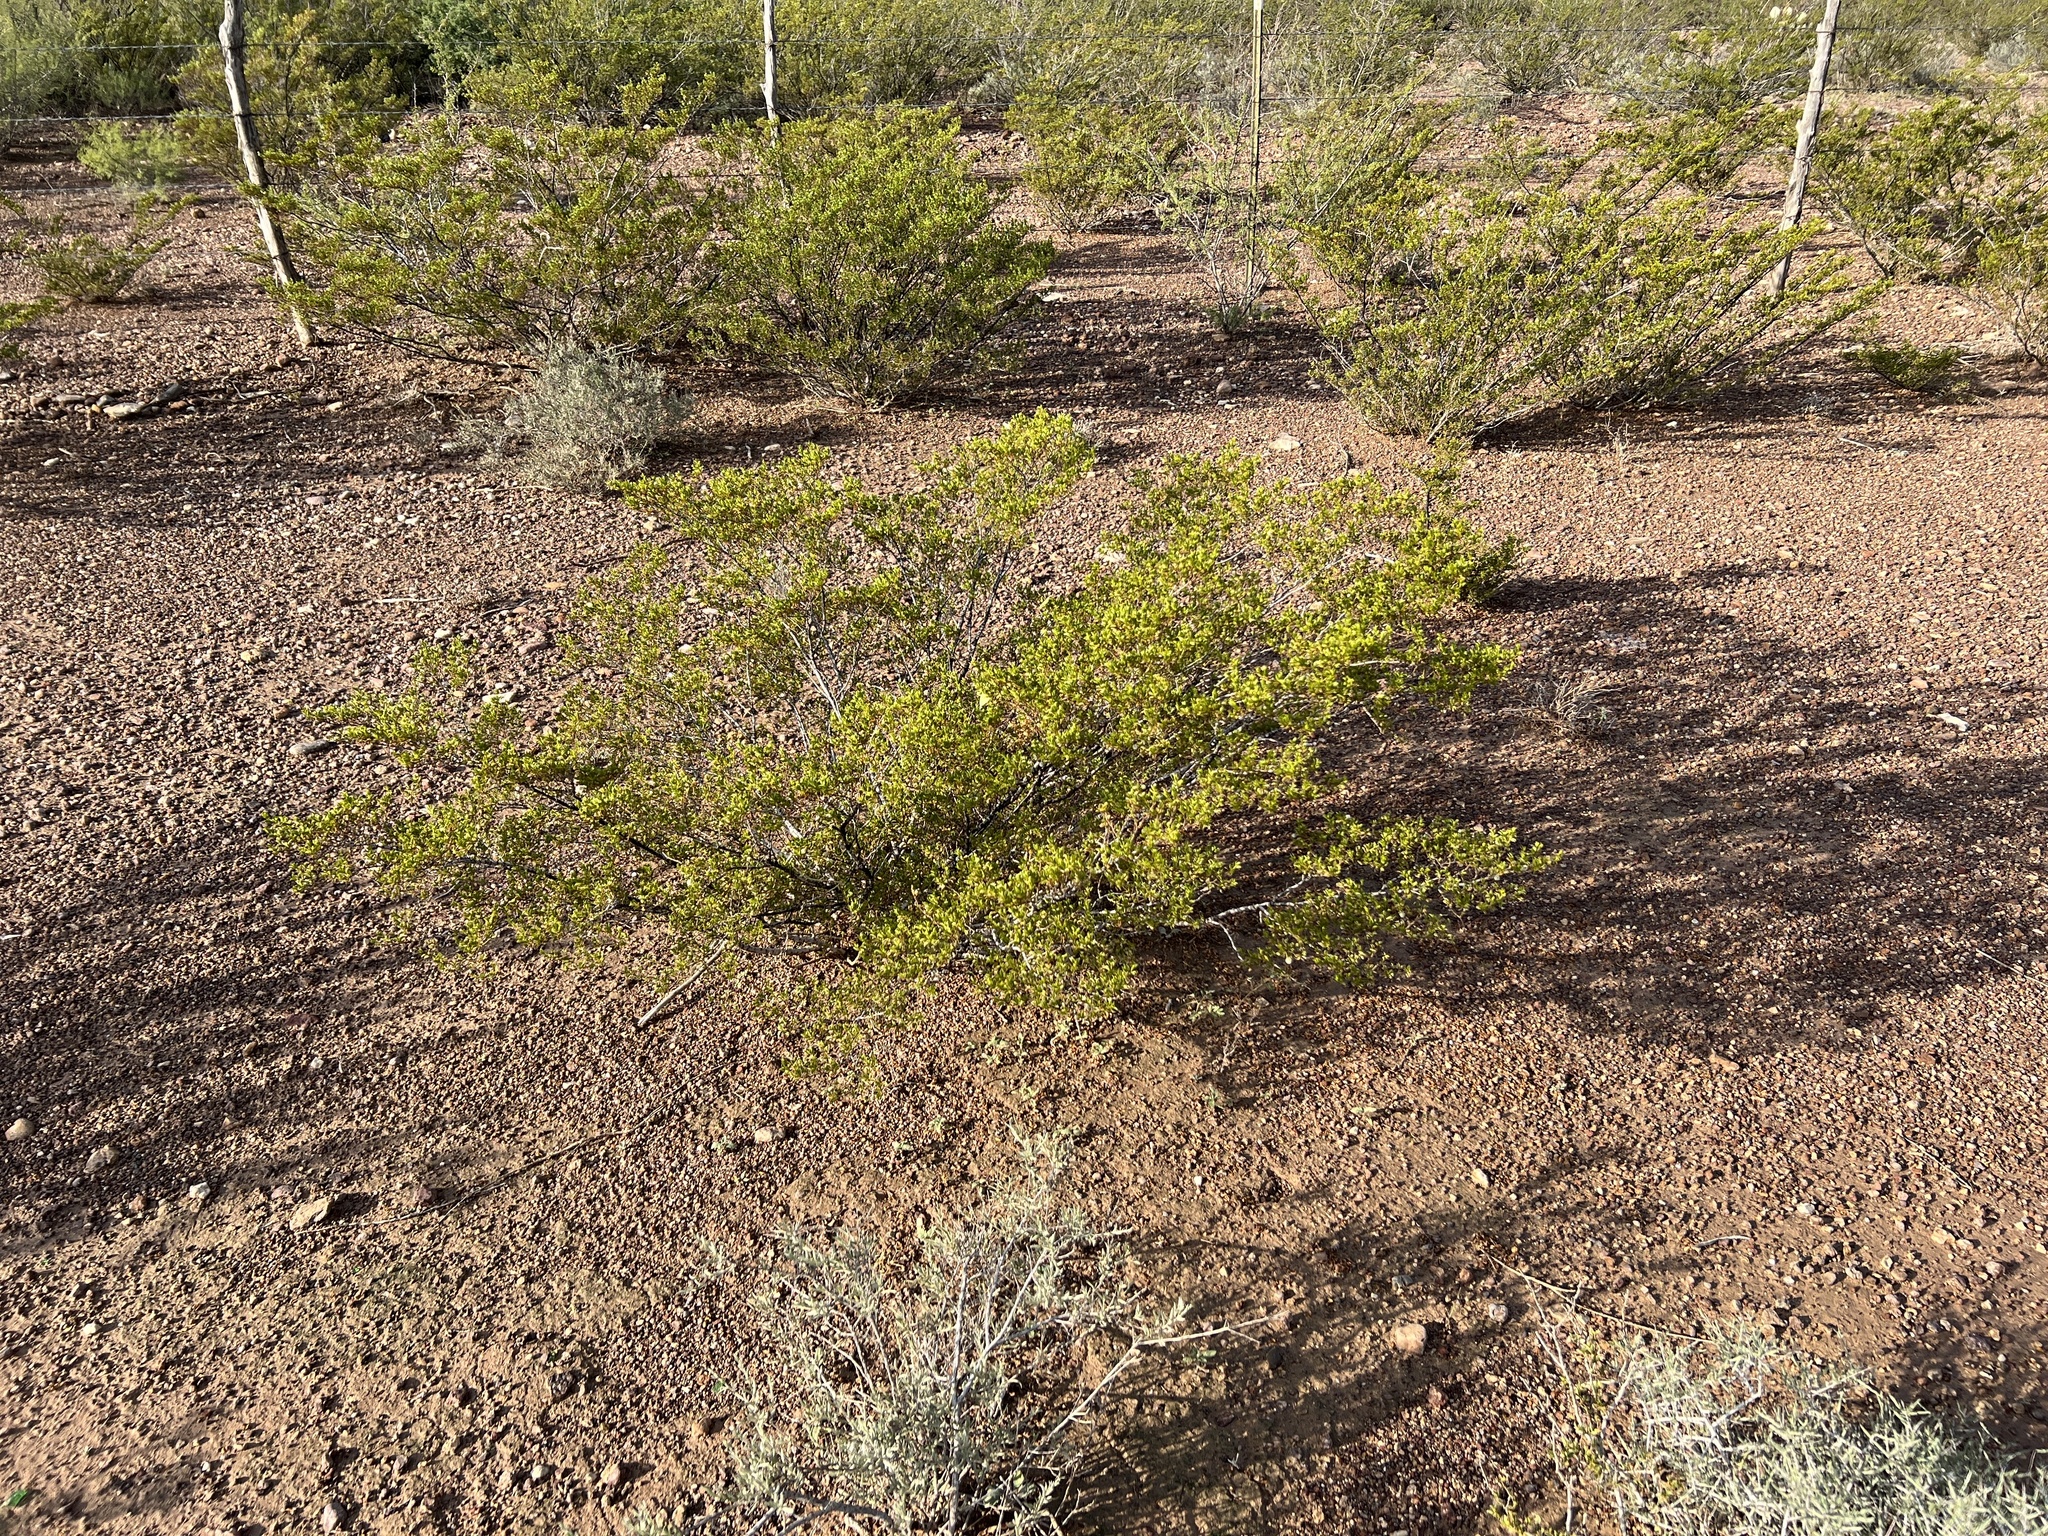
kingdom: Plantae
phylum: Tracheophyta
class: Magnoliopsida
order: Zygophyllales
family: Zygophyllaceae
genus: Larrea
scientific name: Larrea tridentata
